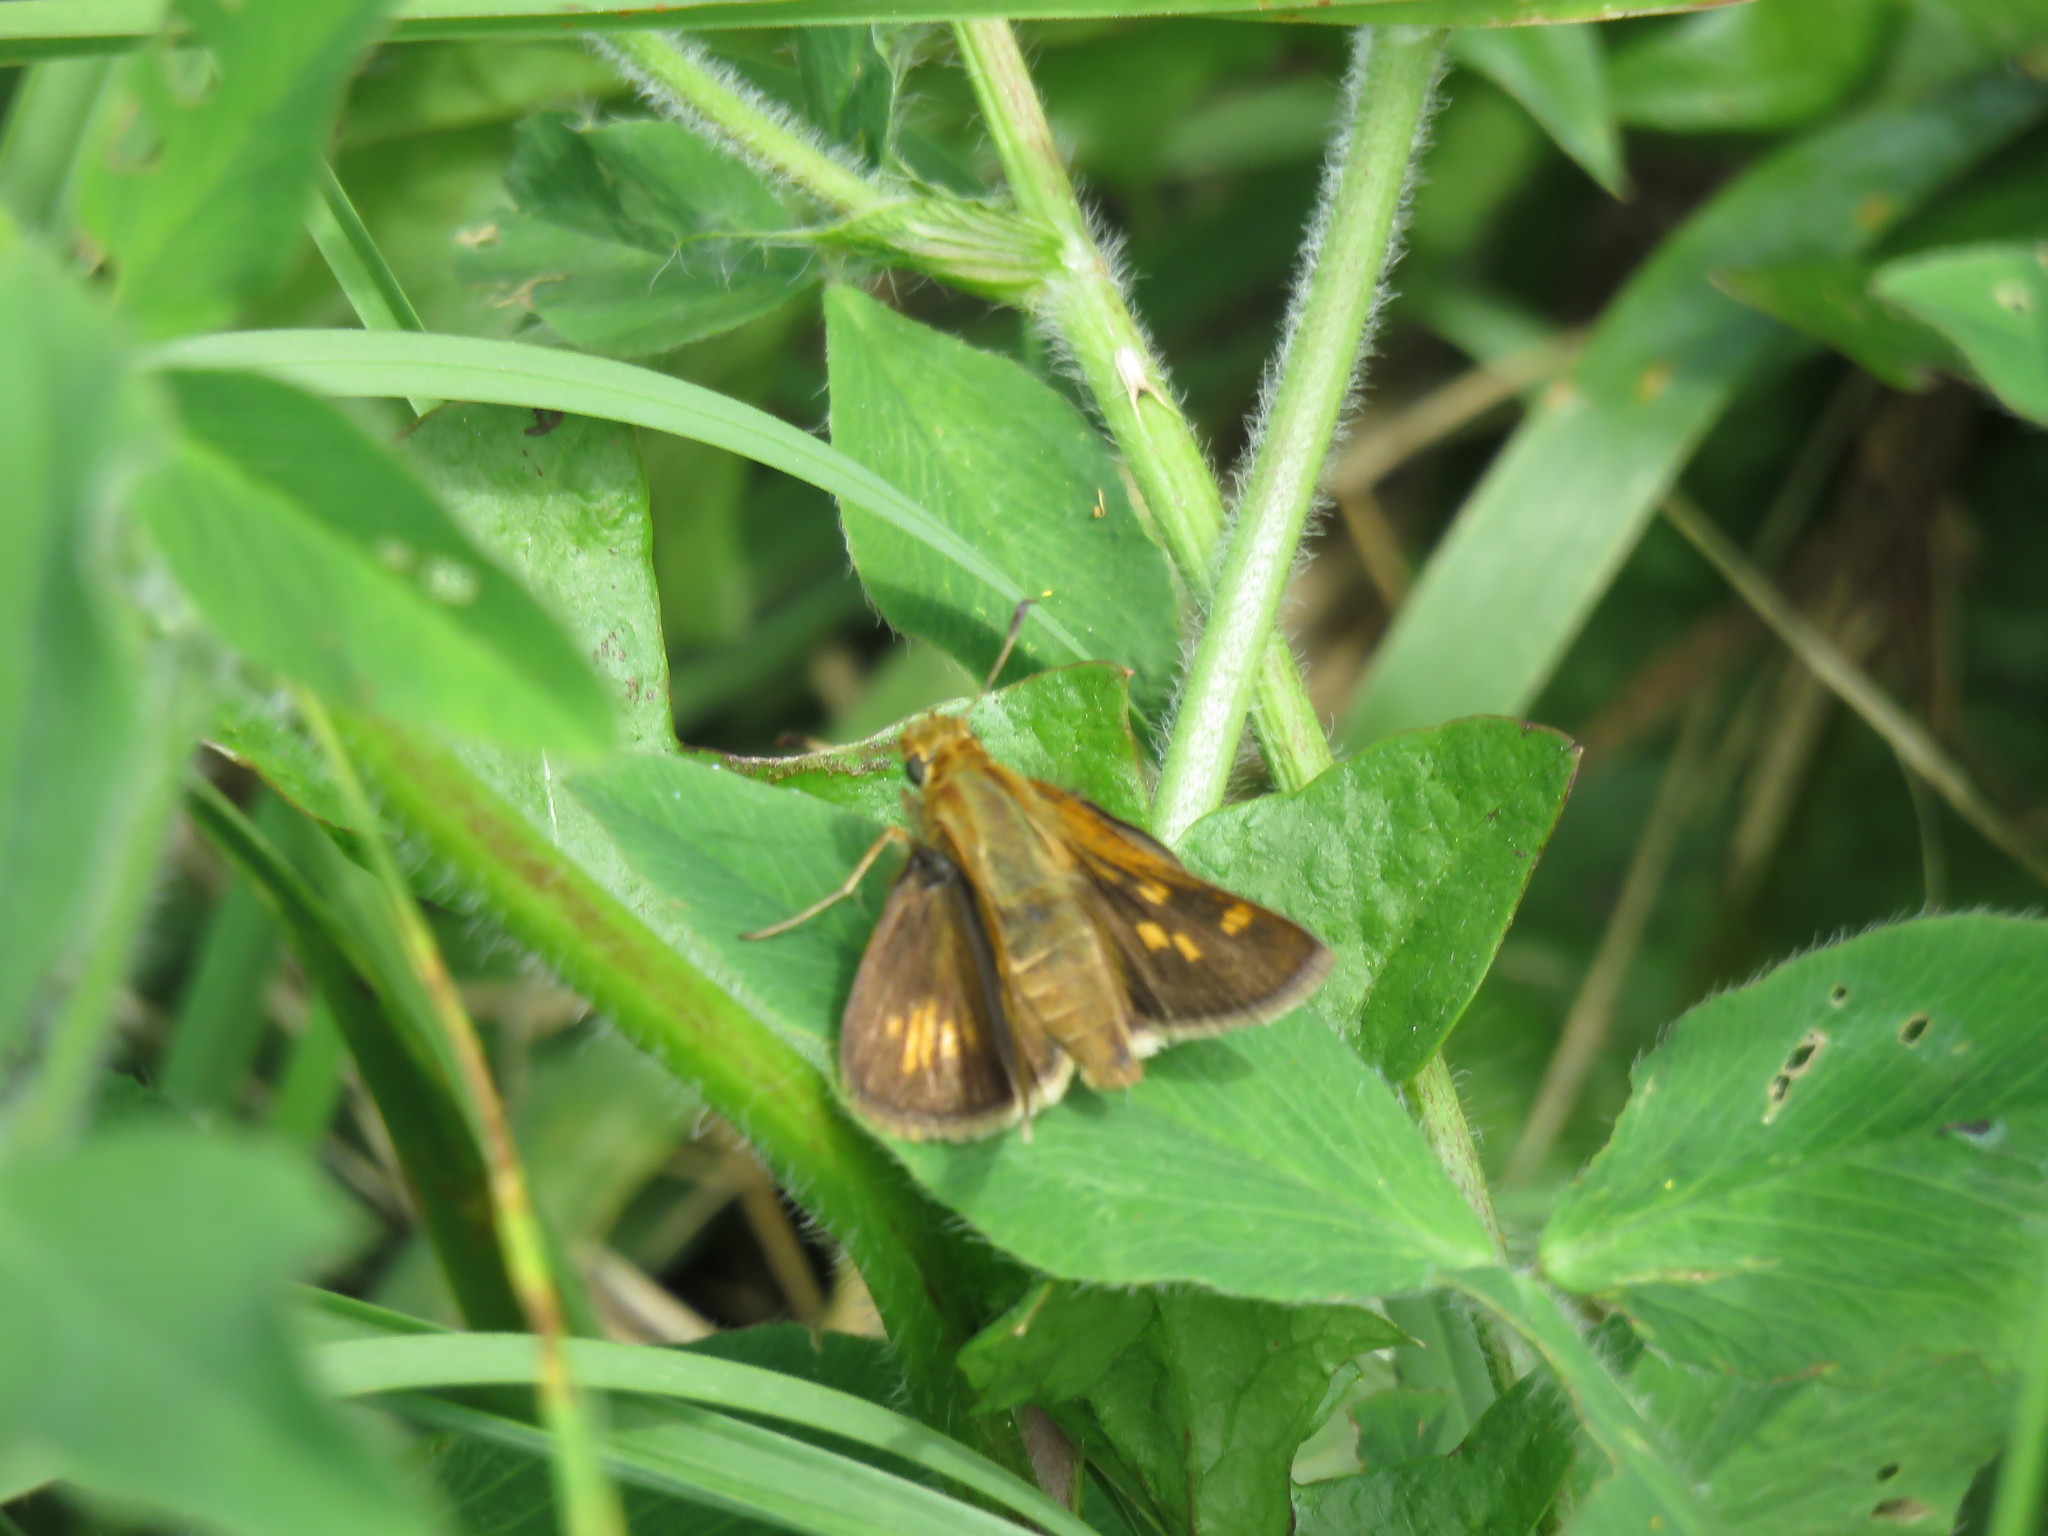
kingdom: Animalia
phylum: Arthropoda
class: Insecta
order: Lepidoptera
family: Hesperiidae
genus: Polites
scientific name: Polites coras
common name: Peck's skipper
